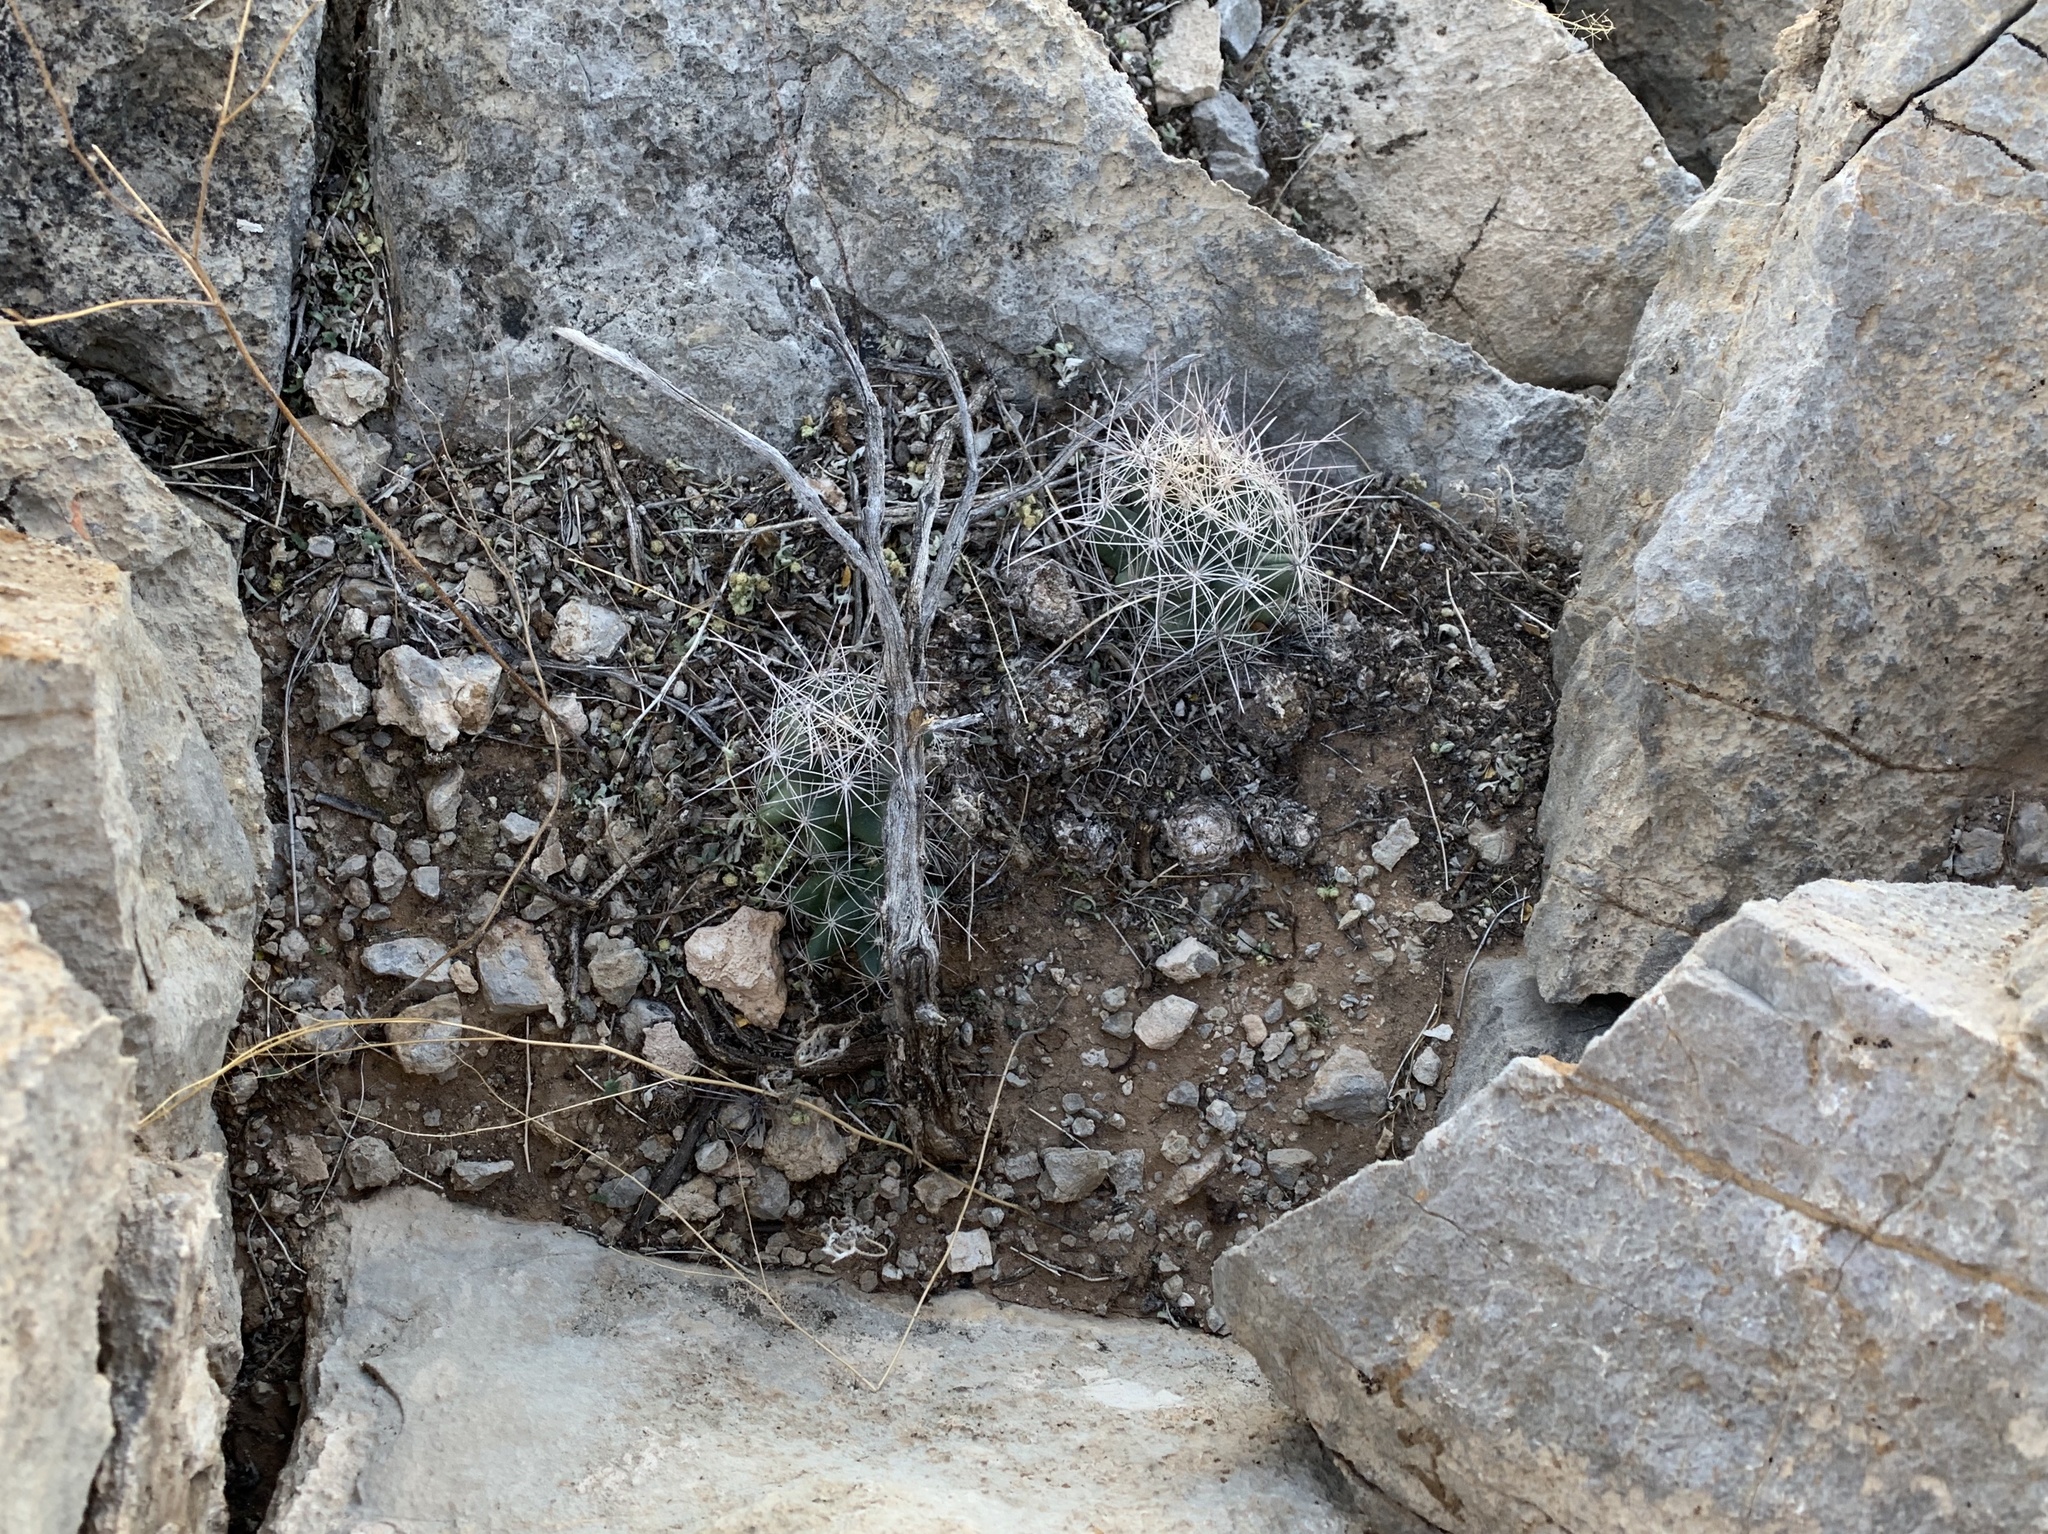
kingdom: Plantae
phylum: Tracheophyta
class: Magnoliopsida
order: Caryophyllales
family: Cactaceae
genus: Coryphantha
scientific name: Coryphantha macromeris
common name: Nipple beehive cactus
